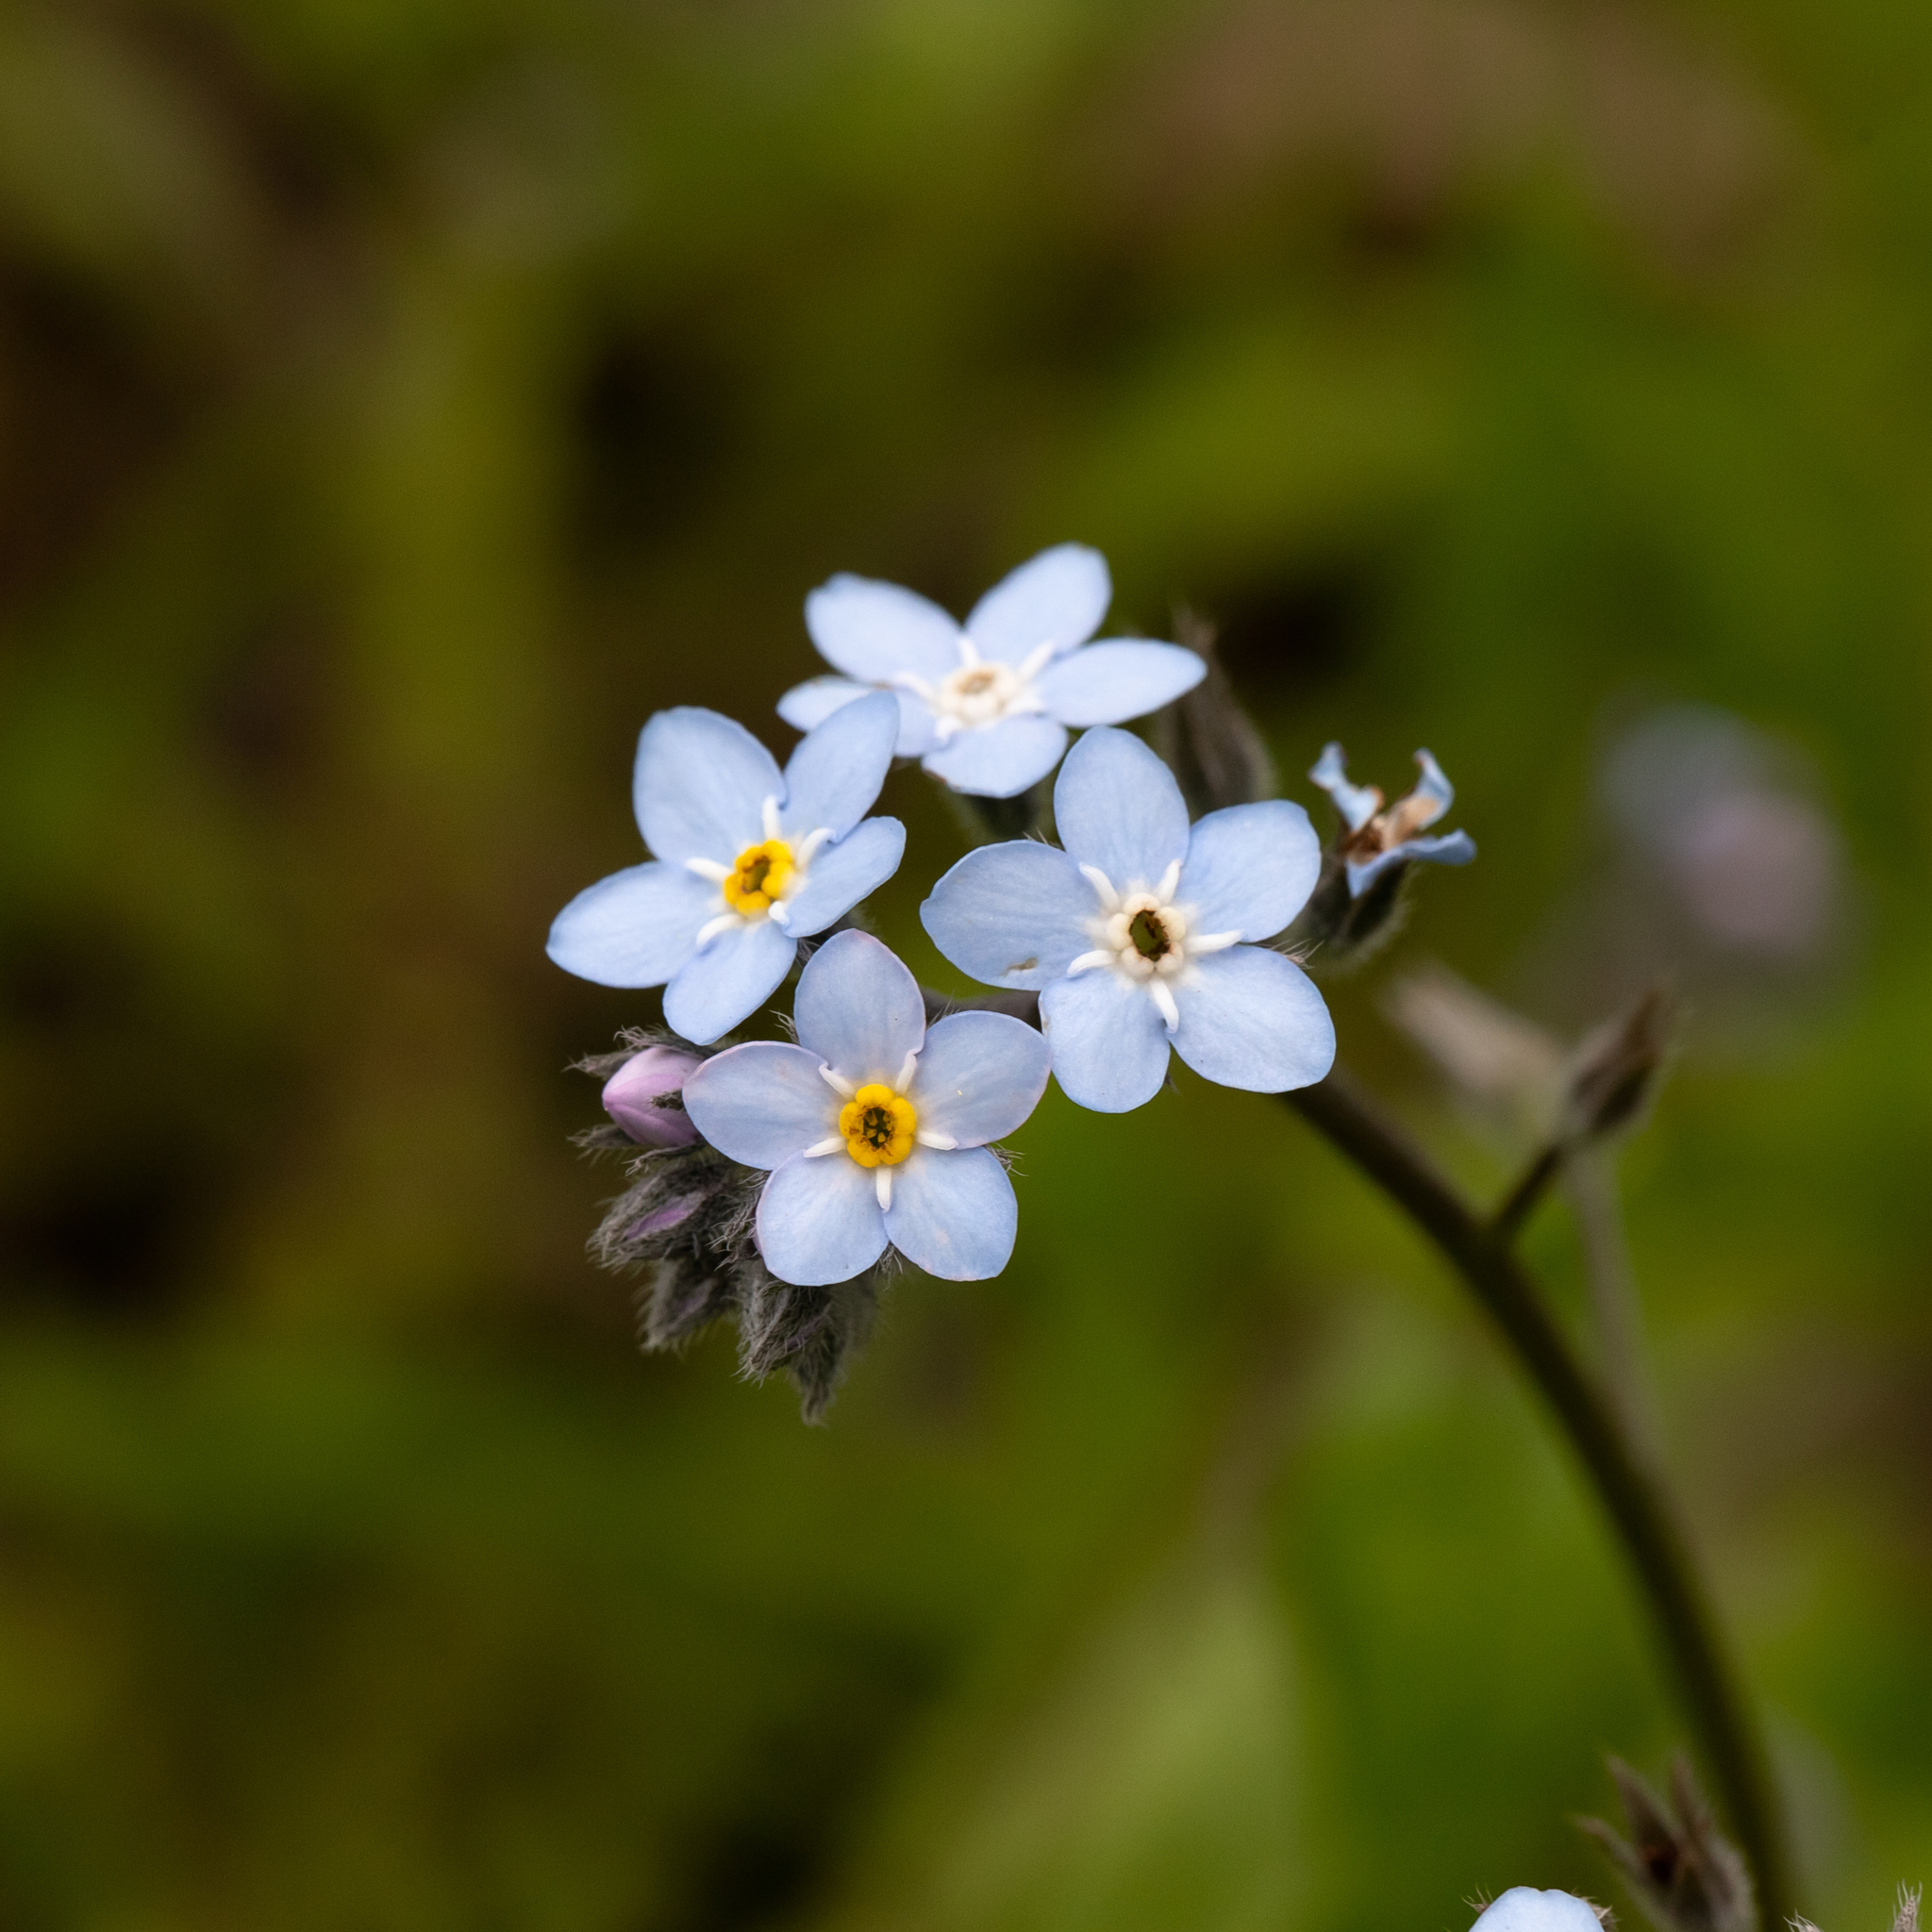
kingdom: Plantae
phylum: Tracheophyta
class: Magnoliopsida
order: Boraginales
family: Boraginaceae
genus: Myosotis
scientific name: Myosotis sylvatica
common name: Wood forget-me-not
